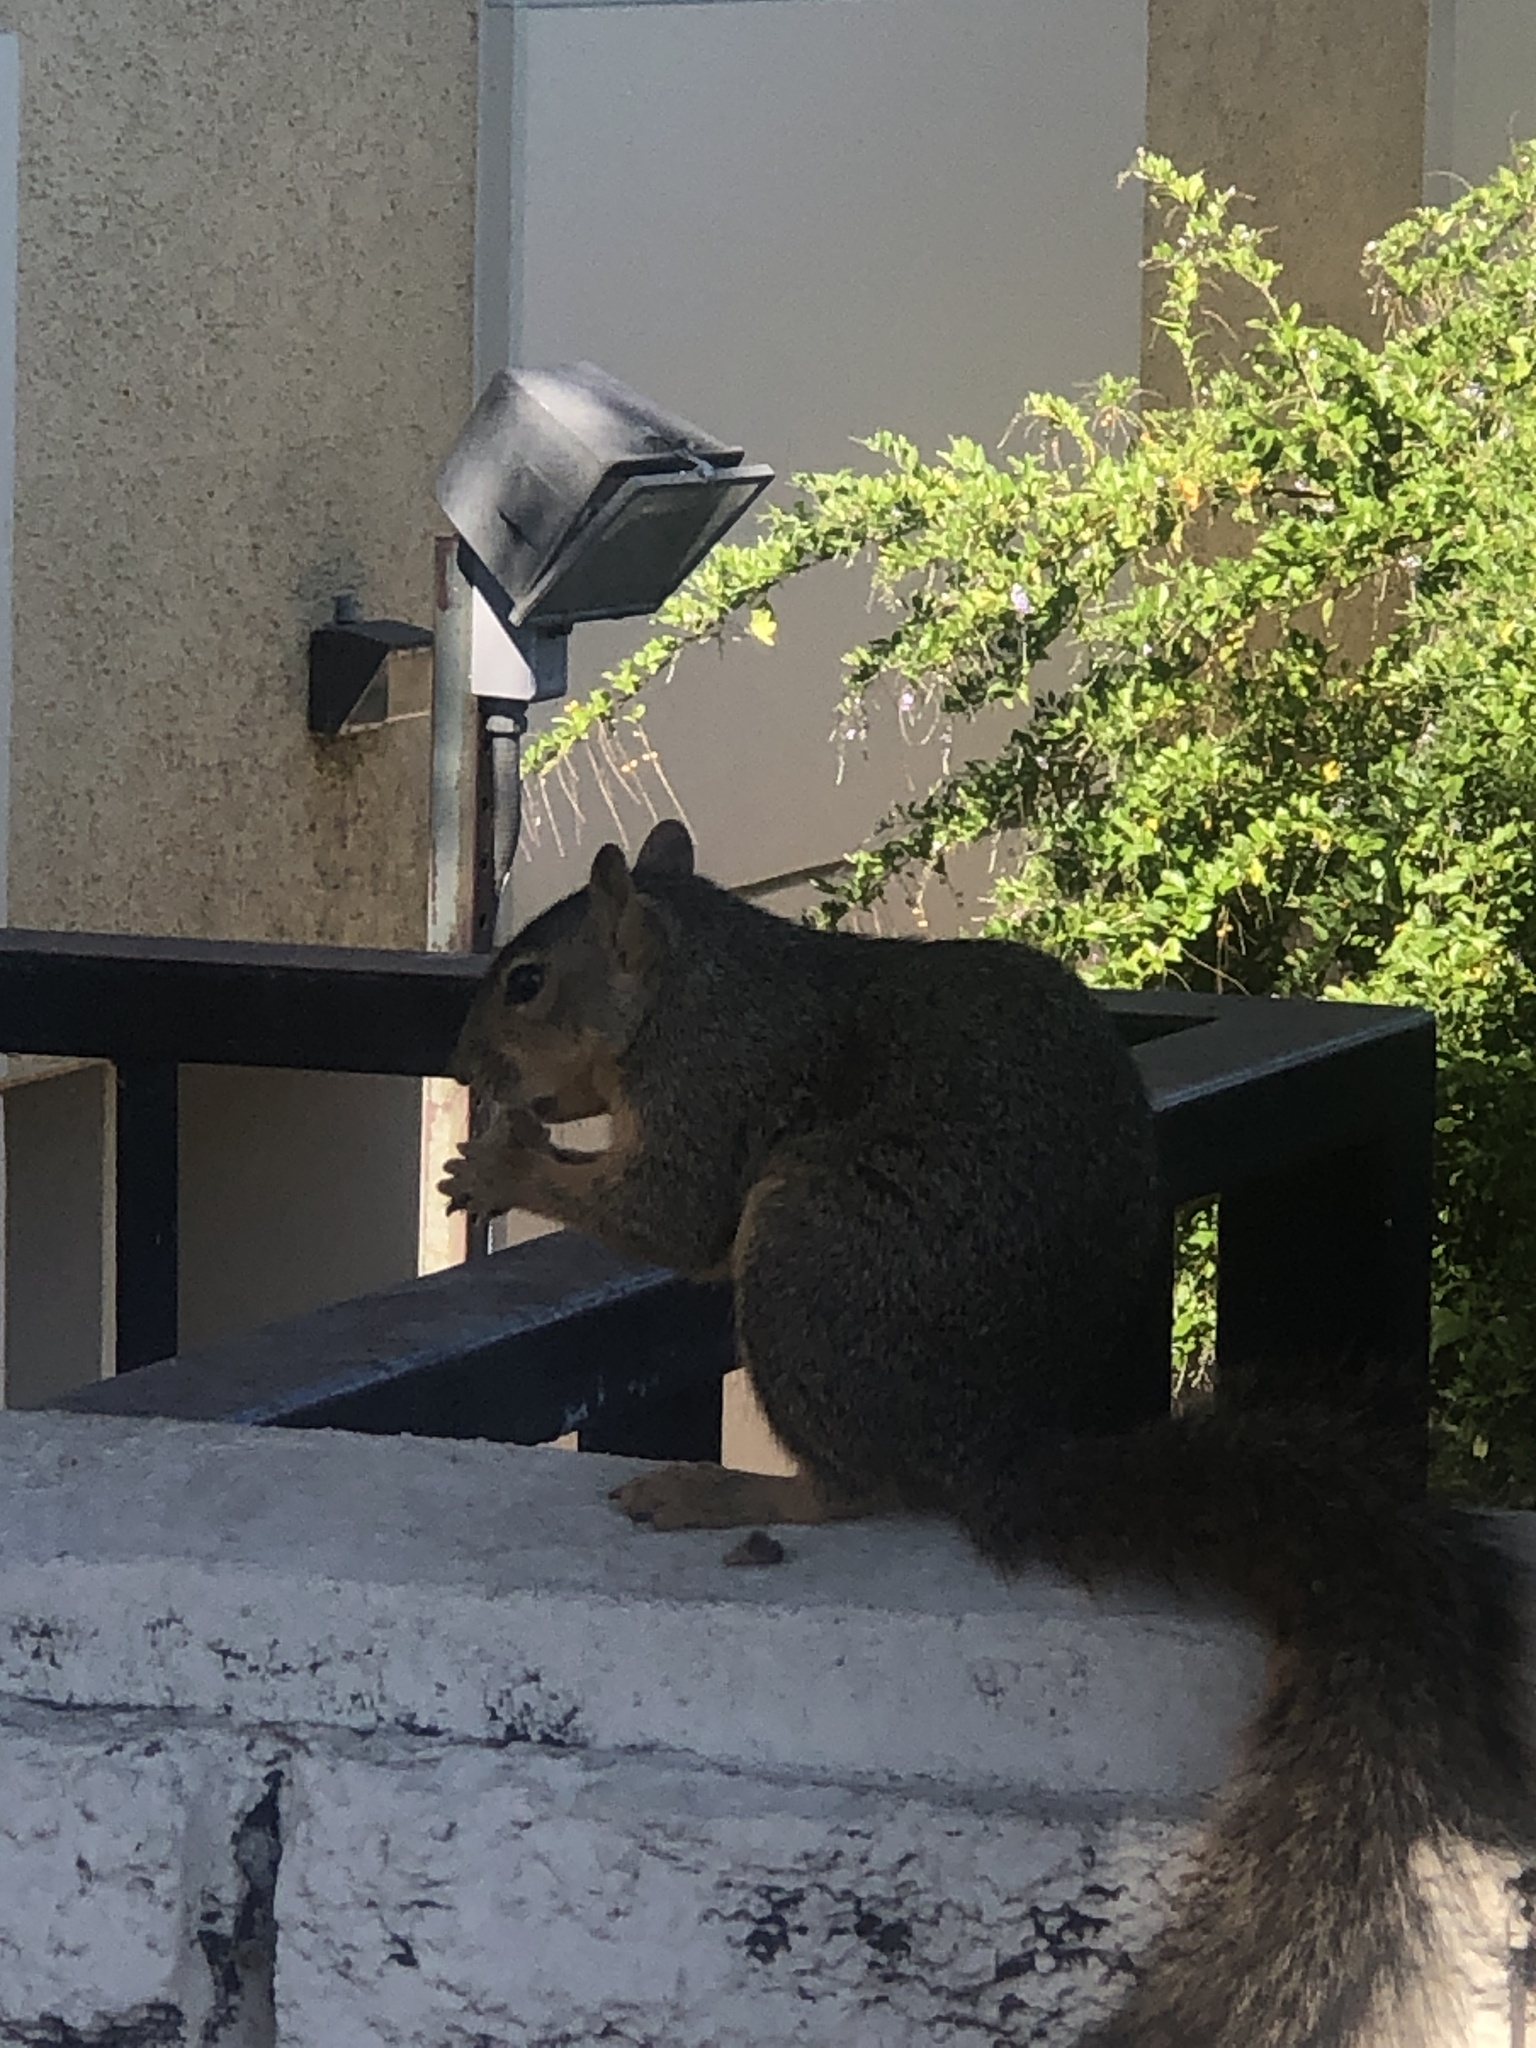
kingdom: Animalia
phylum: Chordata
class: Mammalia
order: Rodentia
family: Sciuridae
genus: Sciurus
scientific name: Sciurus niger
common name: Fox squirrel
